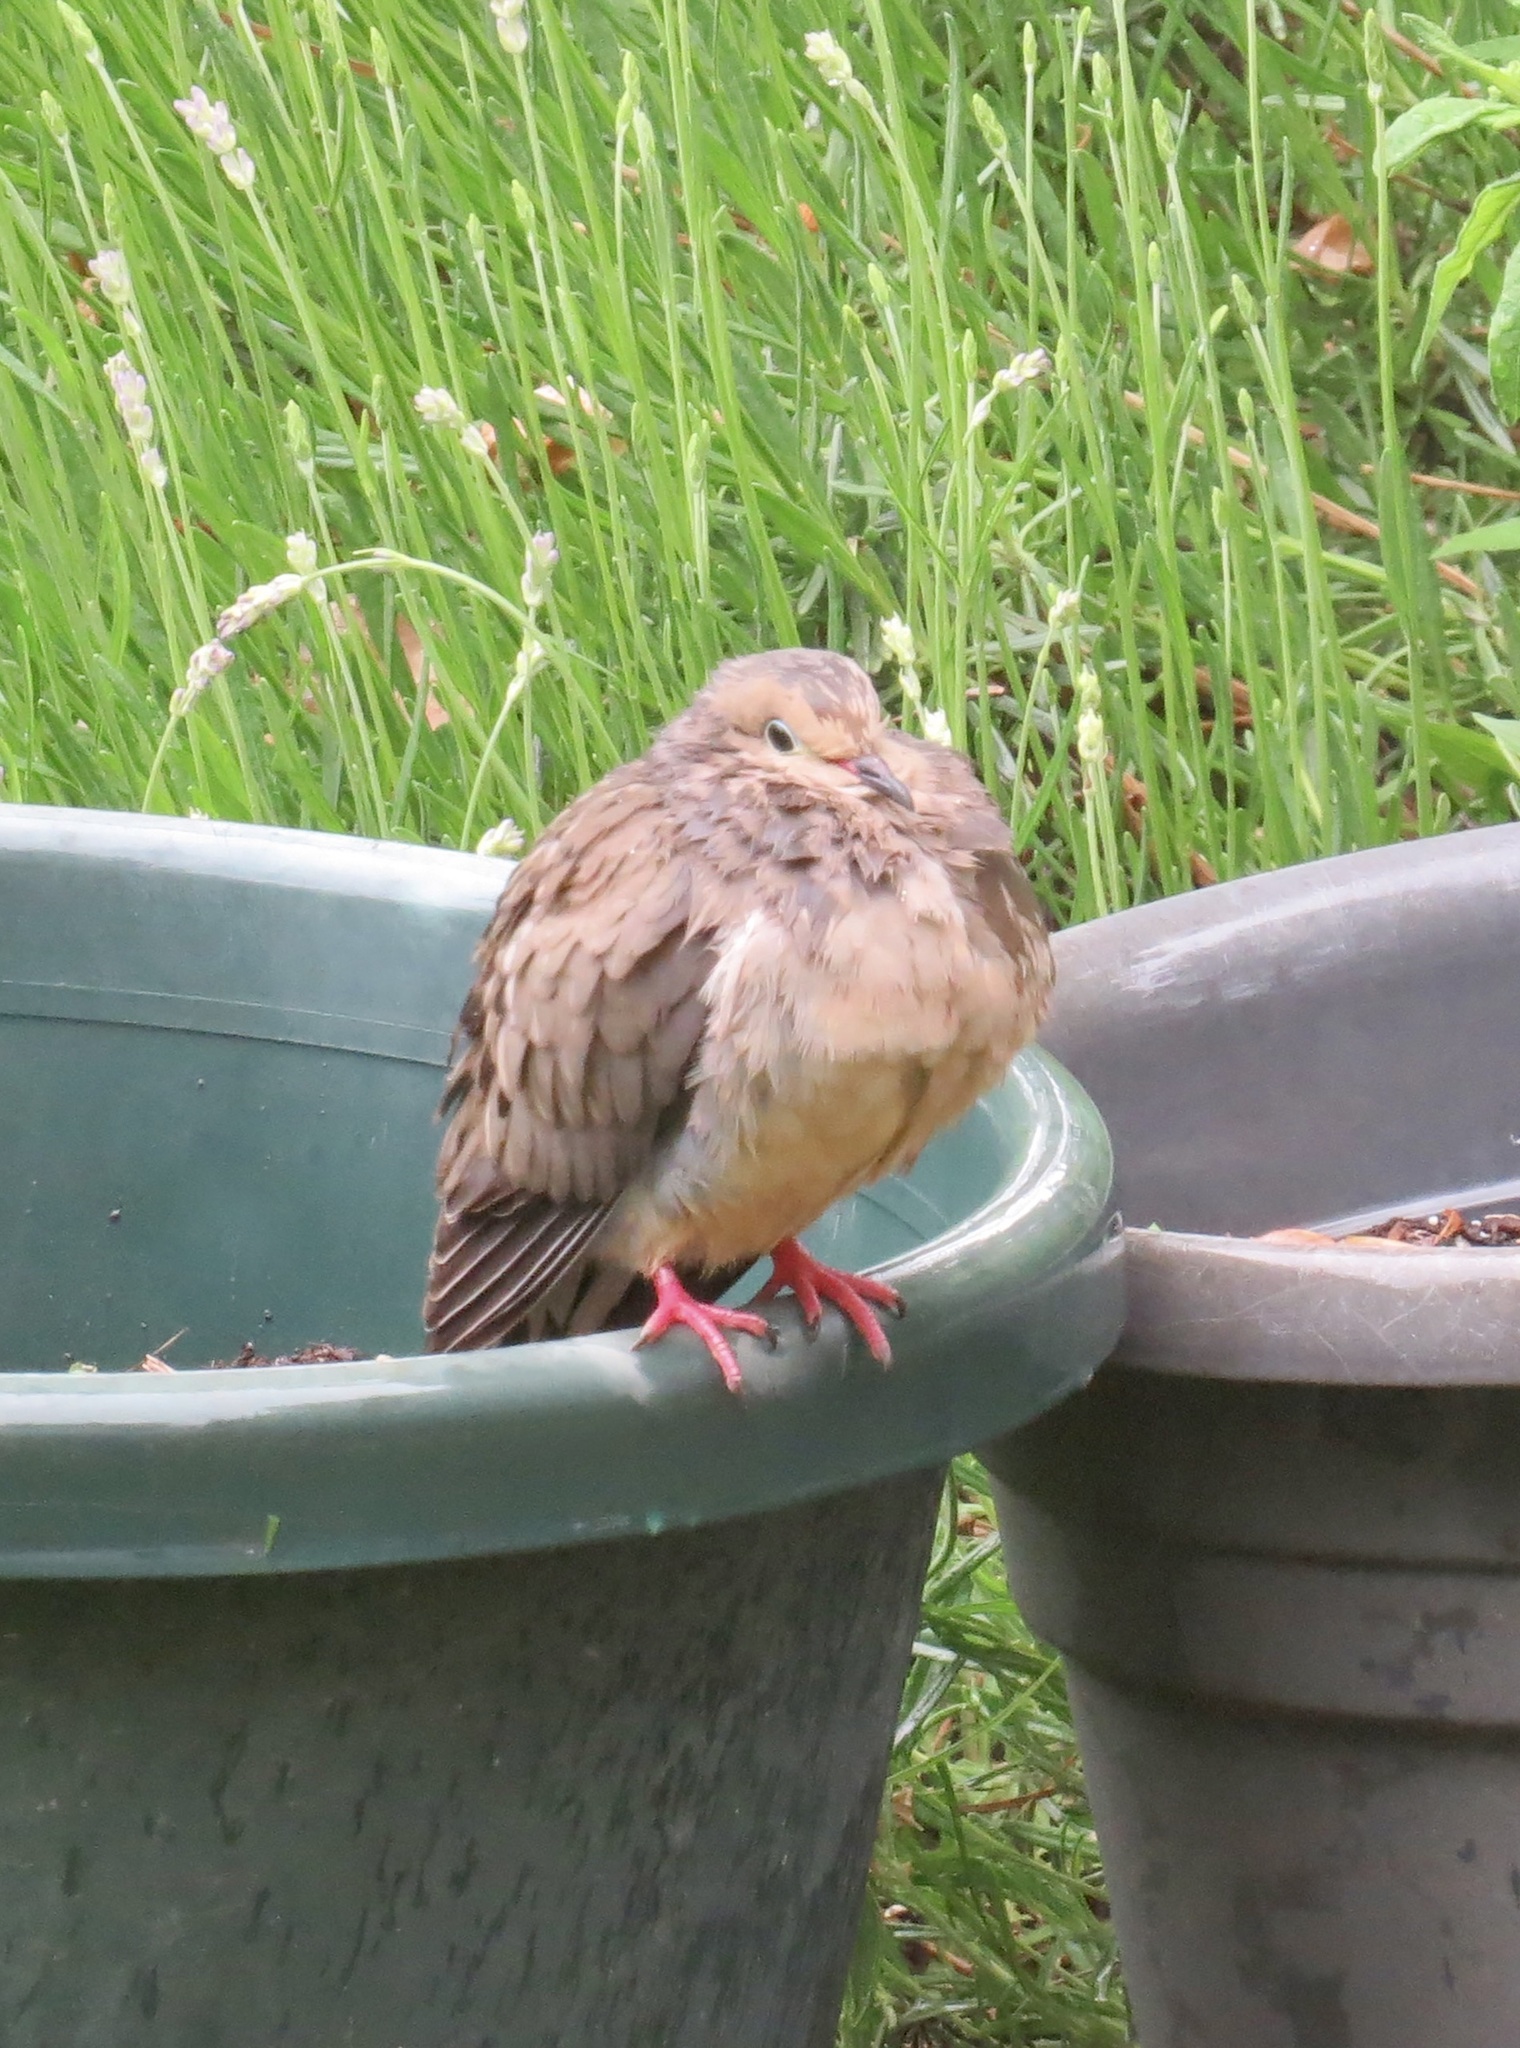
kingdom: Animalia
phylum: Chordata
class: Aves
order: Columbiformes
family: Columbidae
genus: Zenaida
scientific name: Zenaida macroura
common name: Mourning dove
